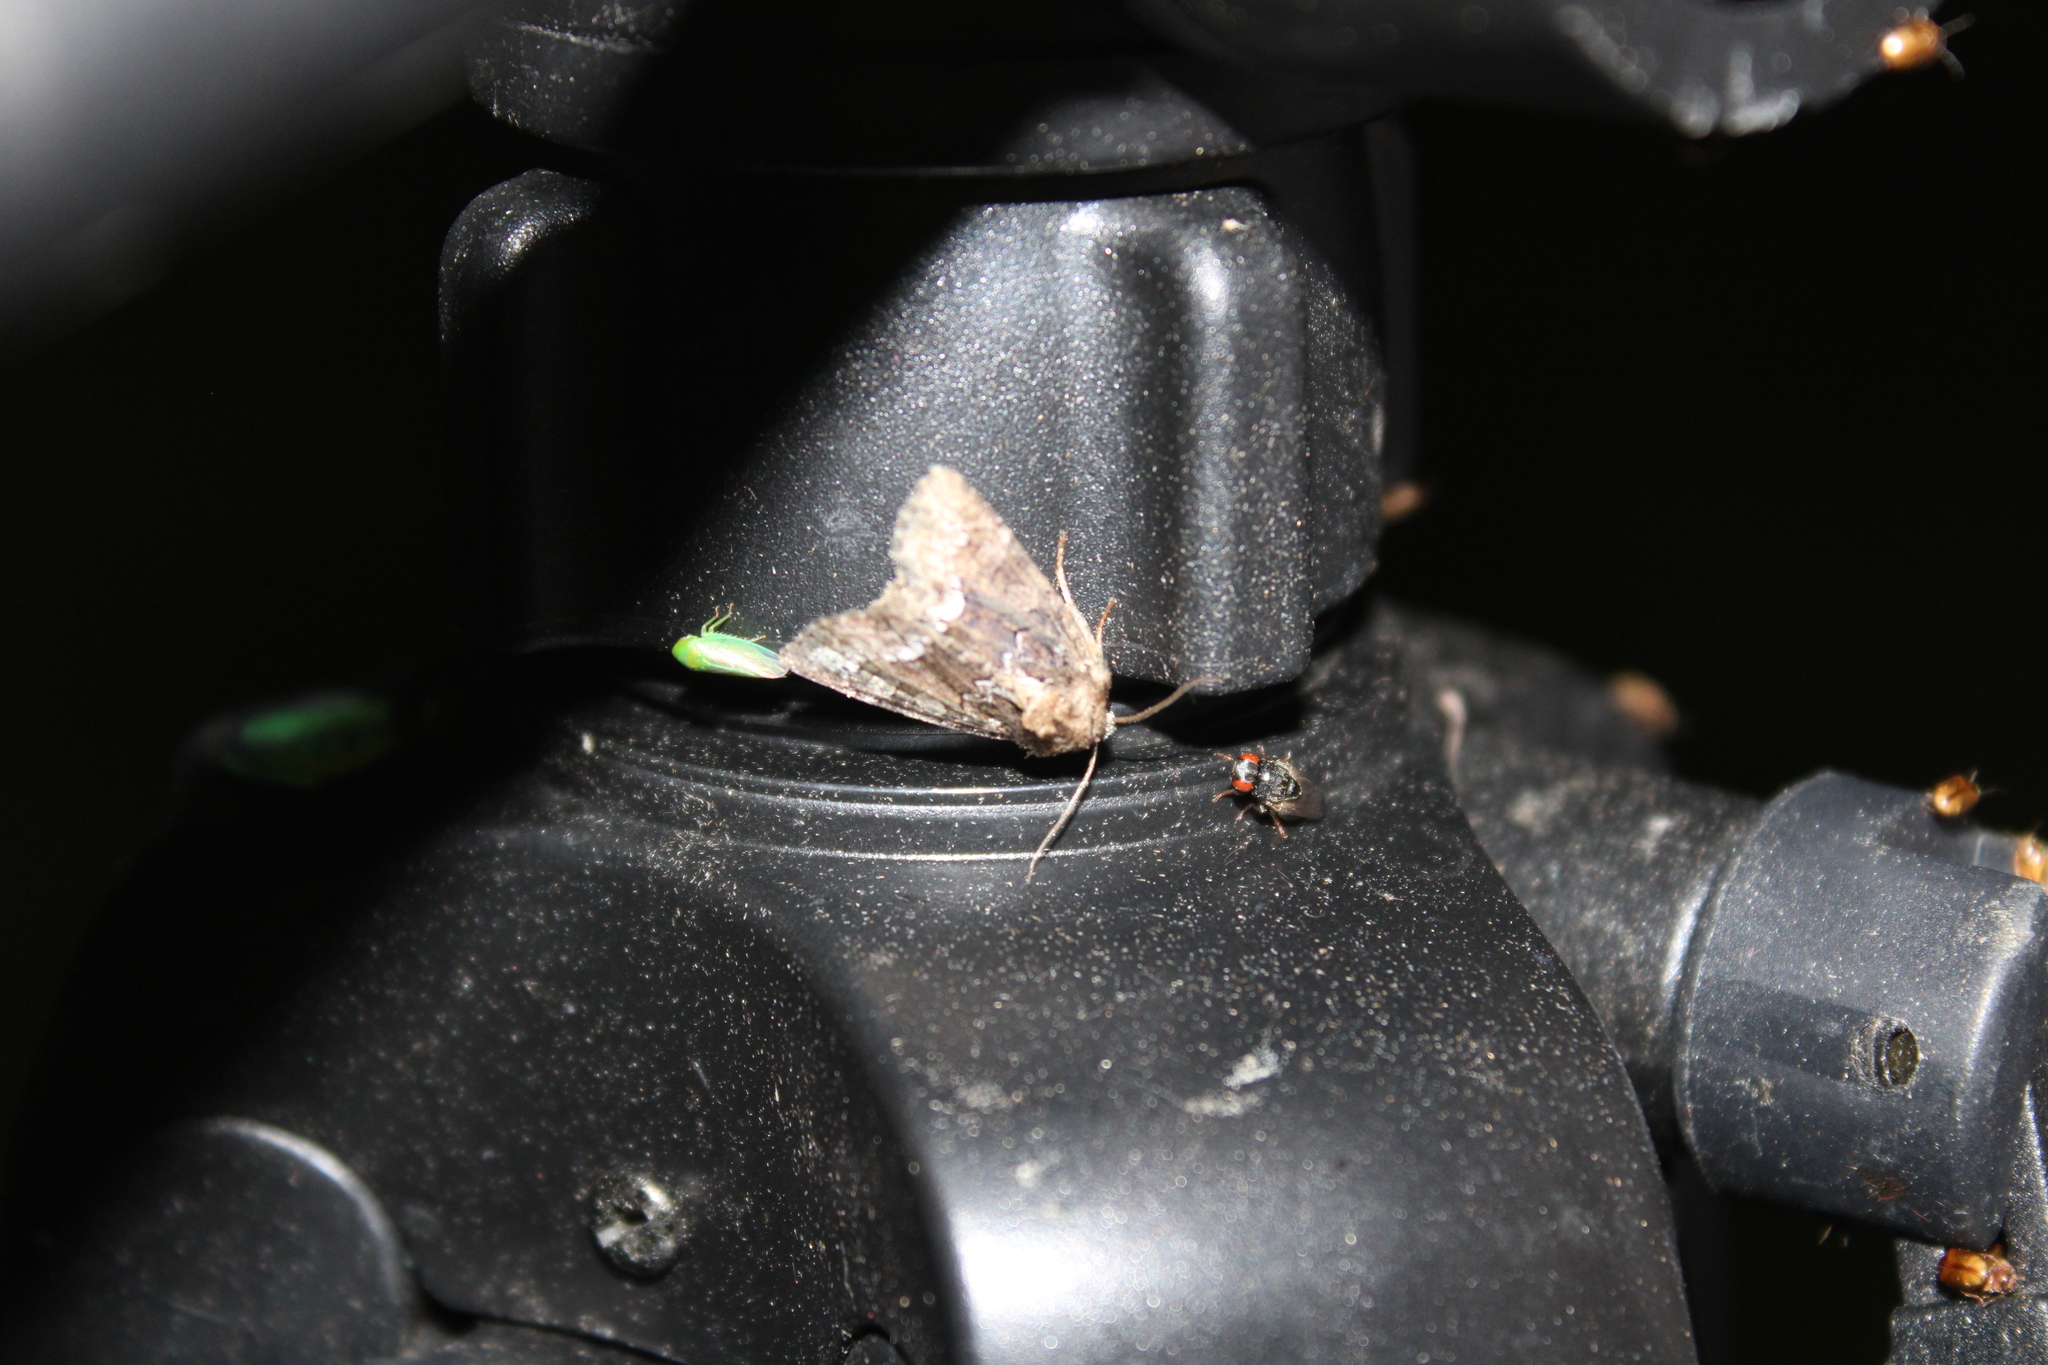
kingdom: Animalia
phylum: Arthropoda
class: Insecta
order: Lepidoptera
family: Noctuidae
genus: Oligia
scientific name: Oligia strigilis
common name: Marbled minor
